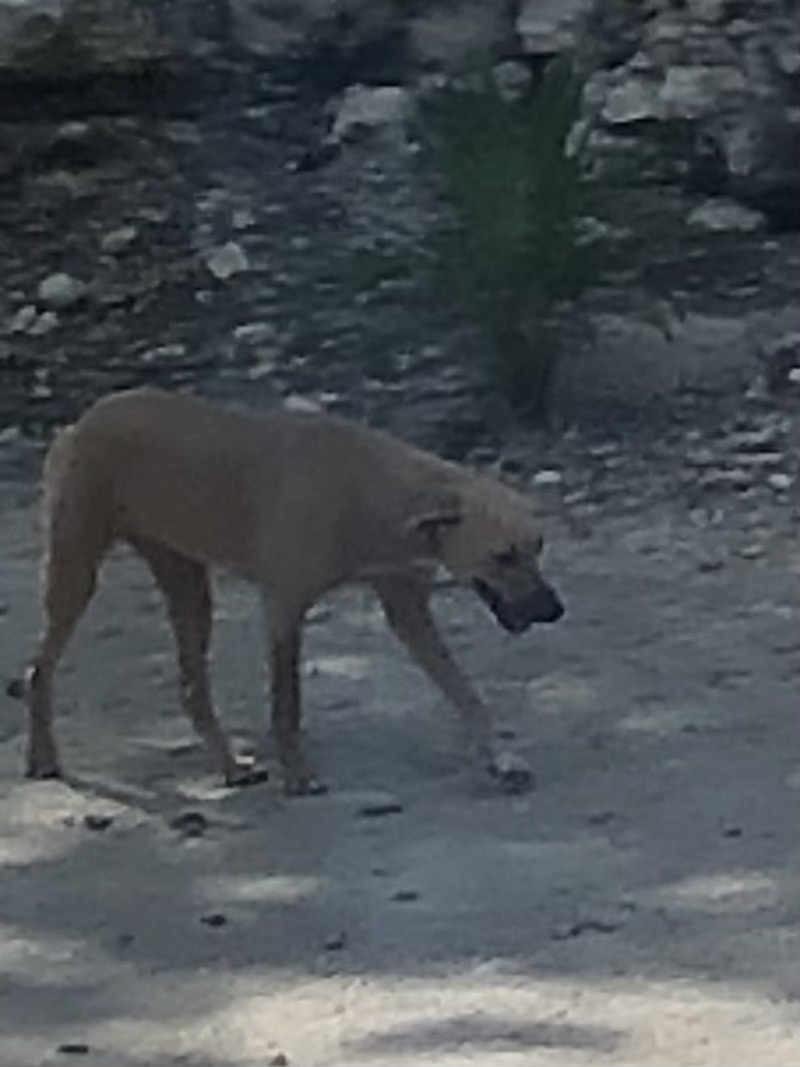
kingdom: Animalia
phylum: Chordata
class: Mammalia
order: Carnivora
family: Canidae
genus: Canis
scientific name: Canis lupus
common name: Gray wolf
